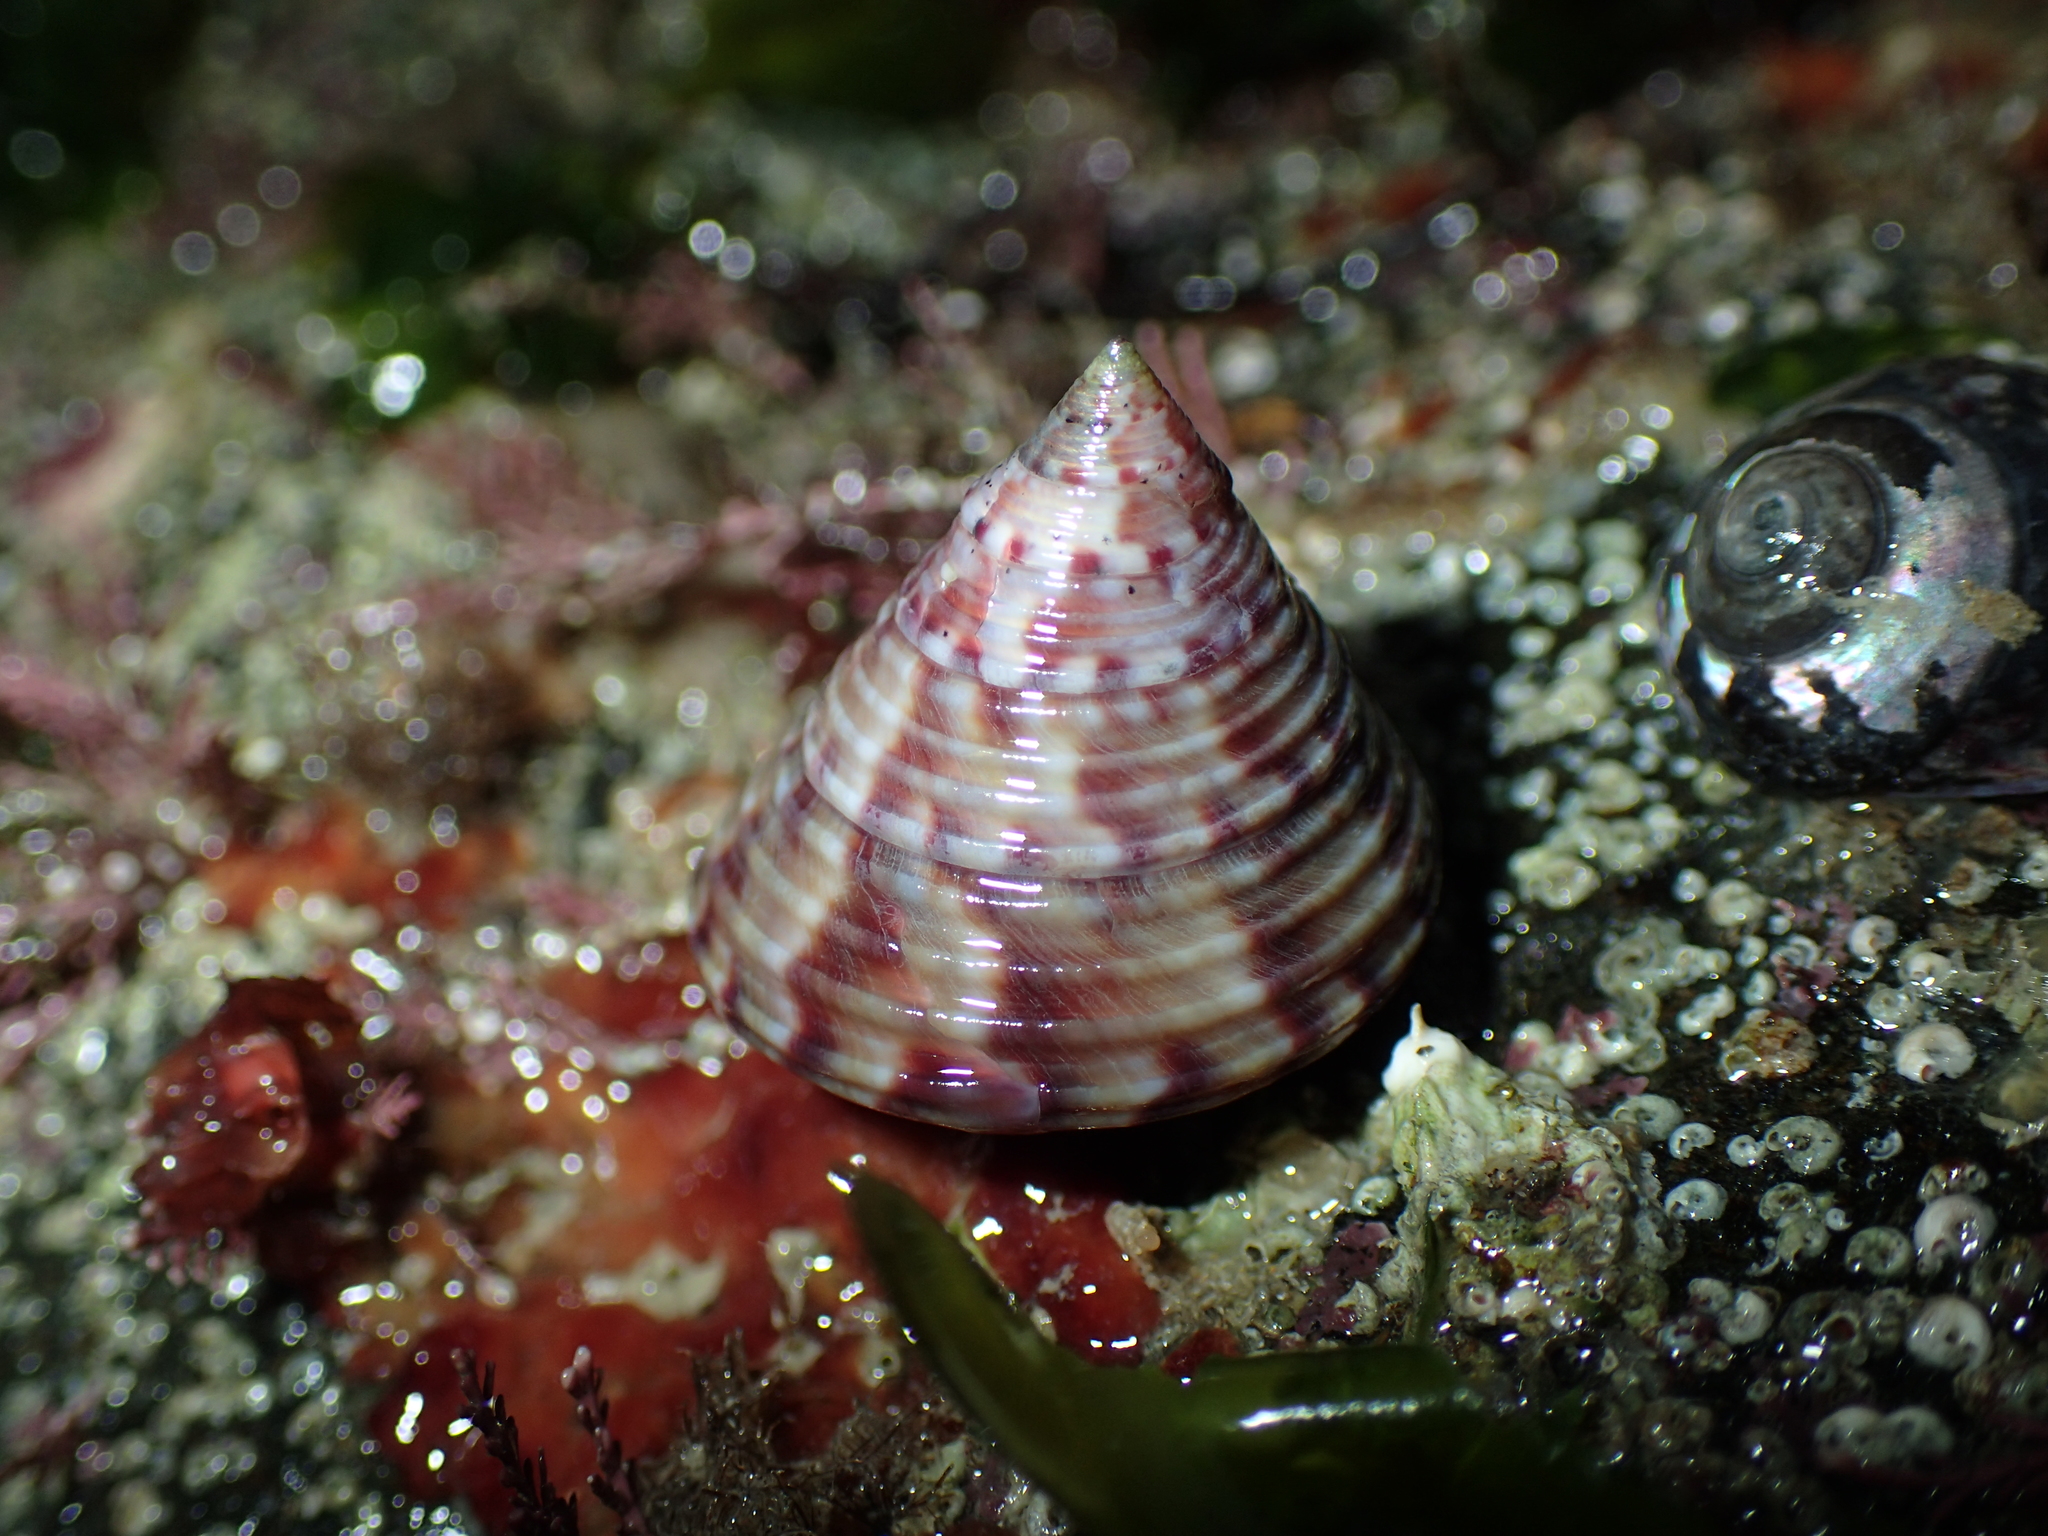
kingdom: Animalia
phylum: Mollusca
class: Gastropoda
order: Trochida
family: Calliostomatidae
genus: Calliostoma
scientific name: Calliostoma zizyphinum
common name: Painted top shell
